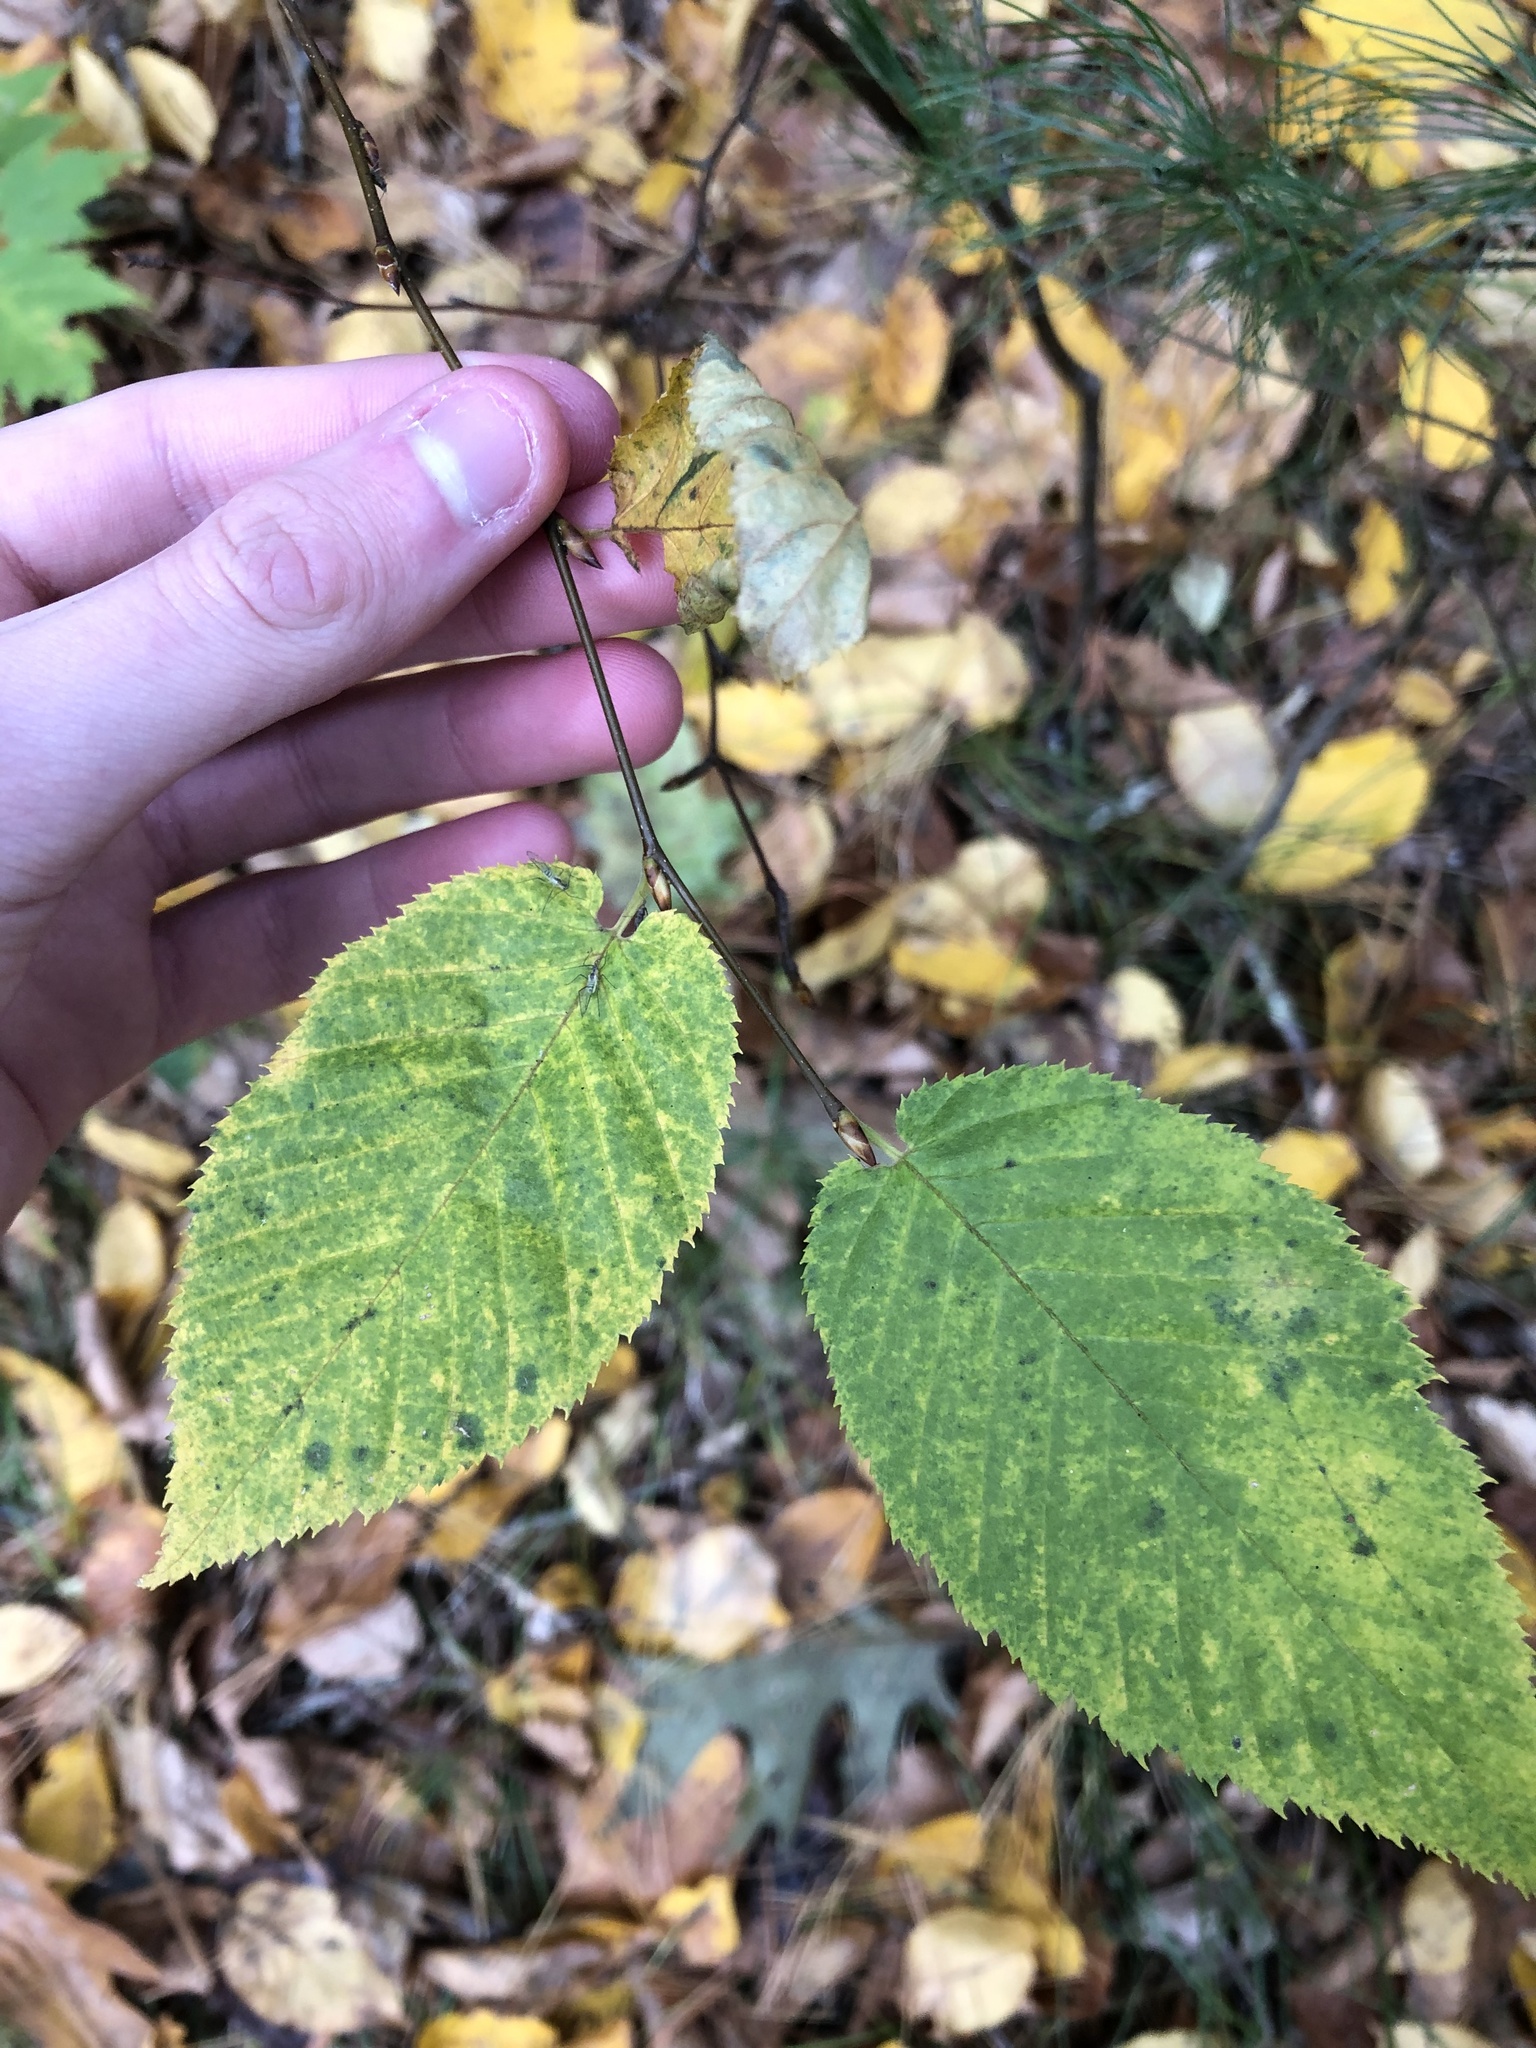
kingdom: Plantae
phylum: Tracheophyta
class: Magnoliopsida
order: Fagales
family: Betulaceae
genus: Betula
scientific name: Betula alleghaniensis
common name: Yellow birch
